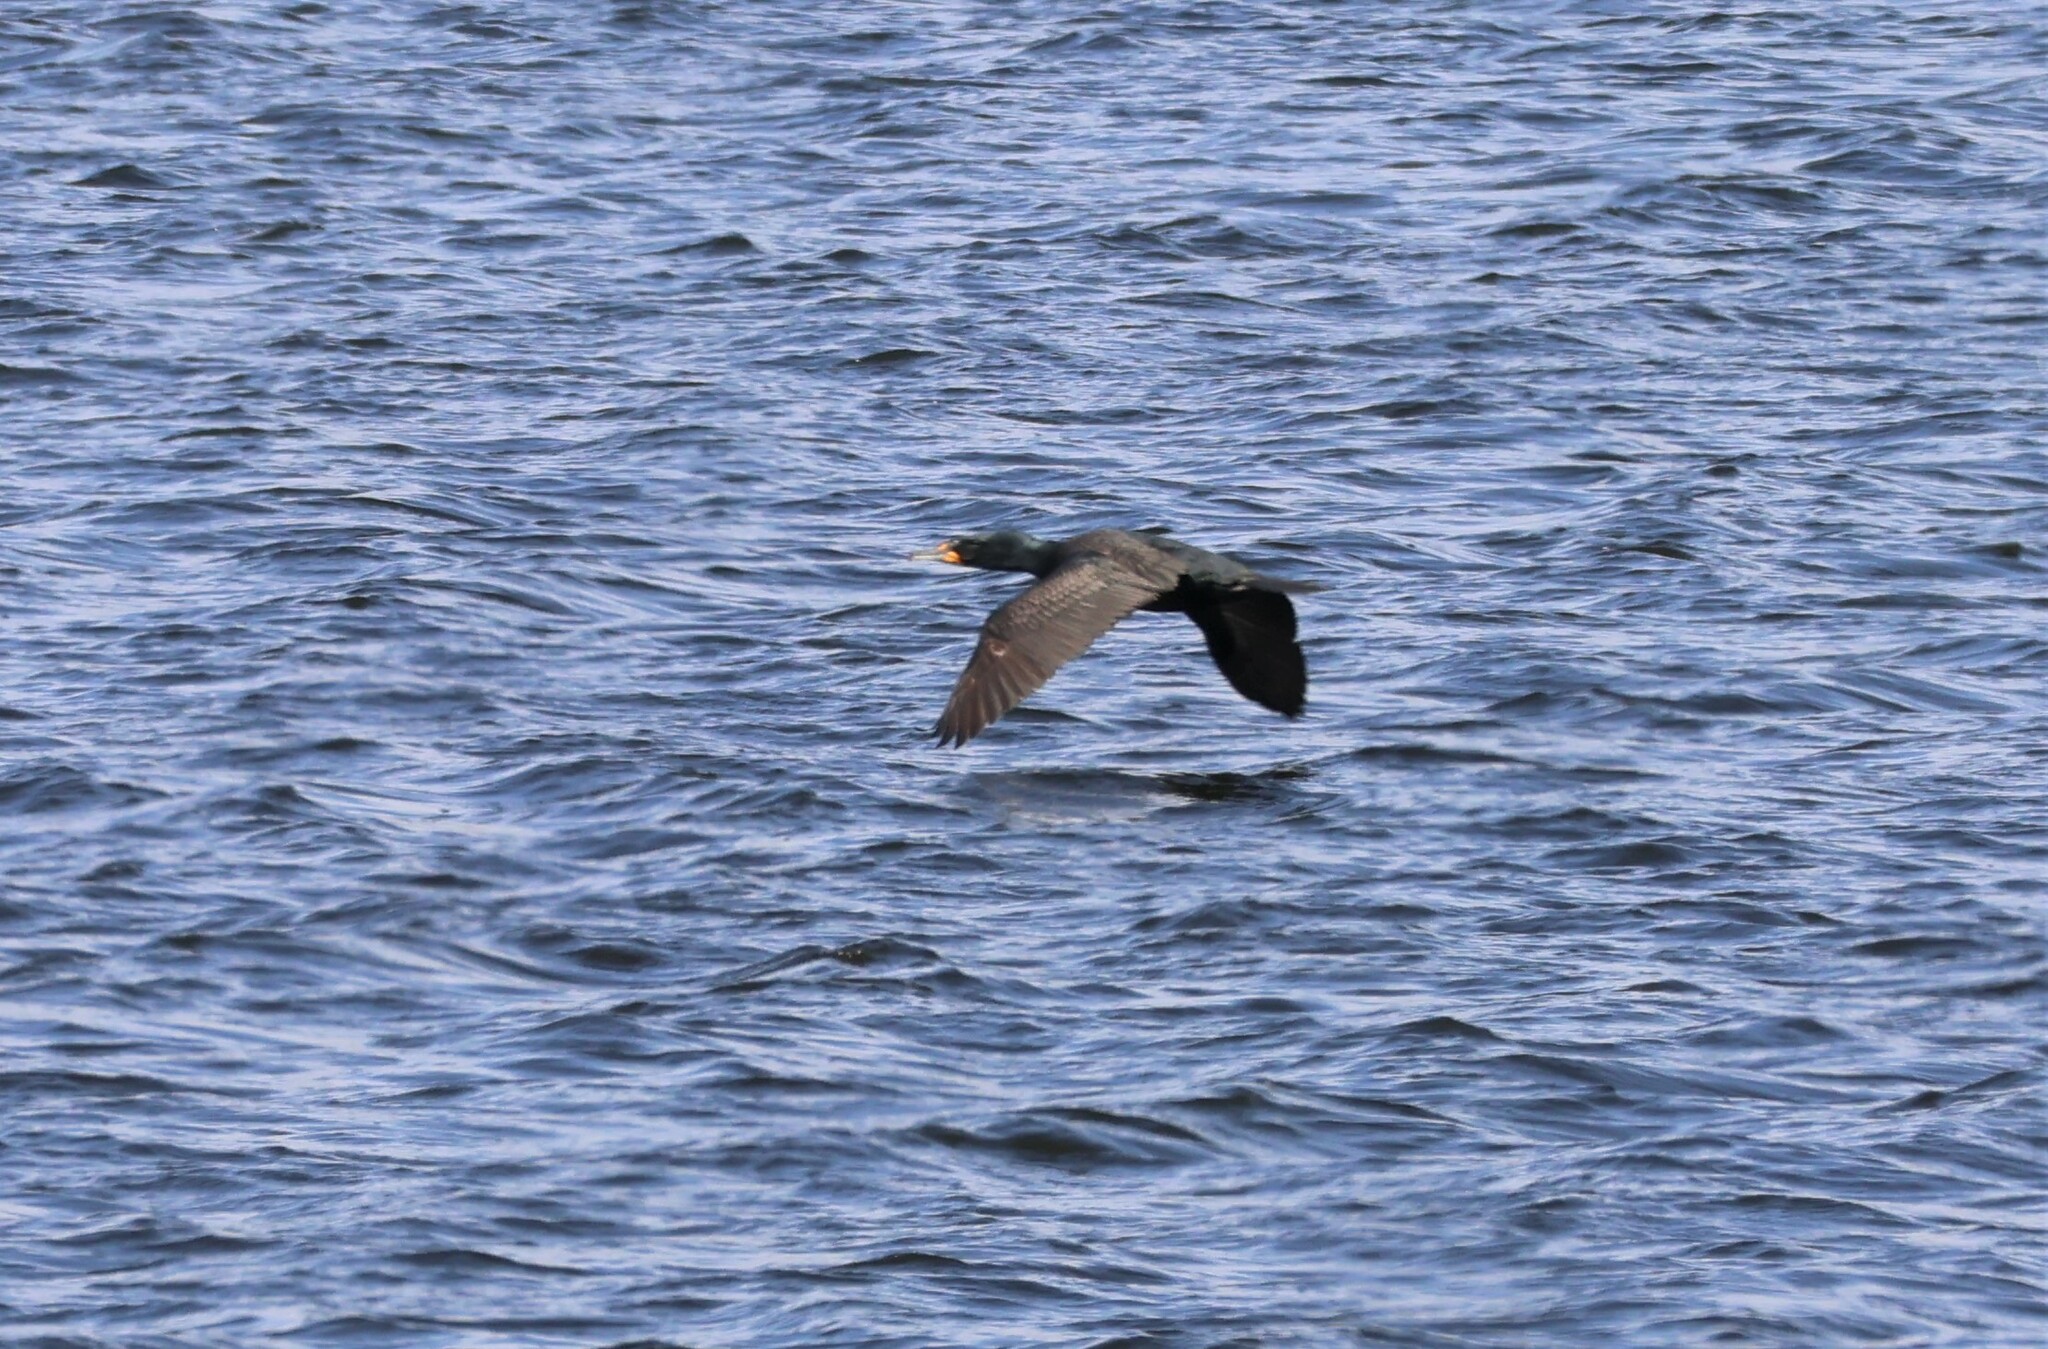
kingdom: Animalia
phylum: Chordata
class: Aves
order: Suliformes
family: Phalacrocoracidae
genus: Phalacrocorax
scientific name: Phalacrocorax auritus
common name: Double-crested cormorant
